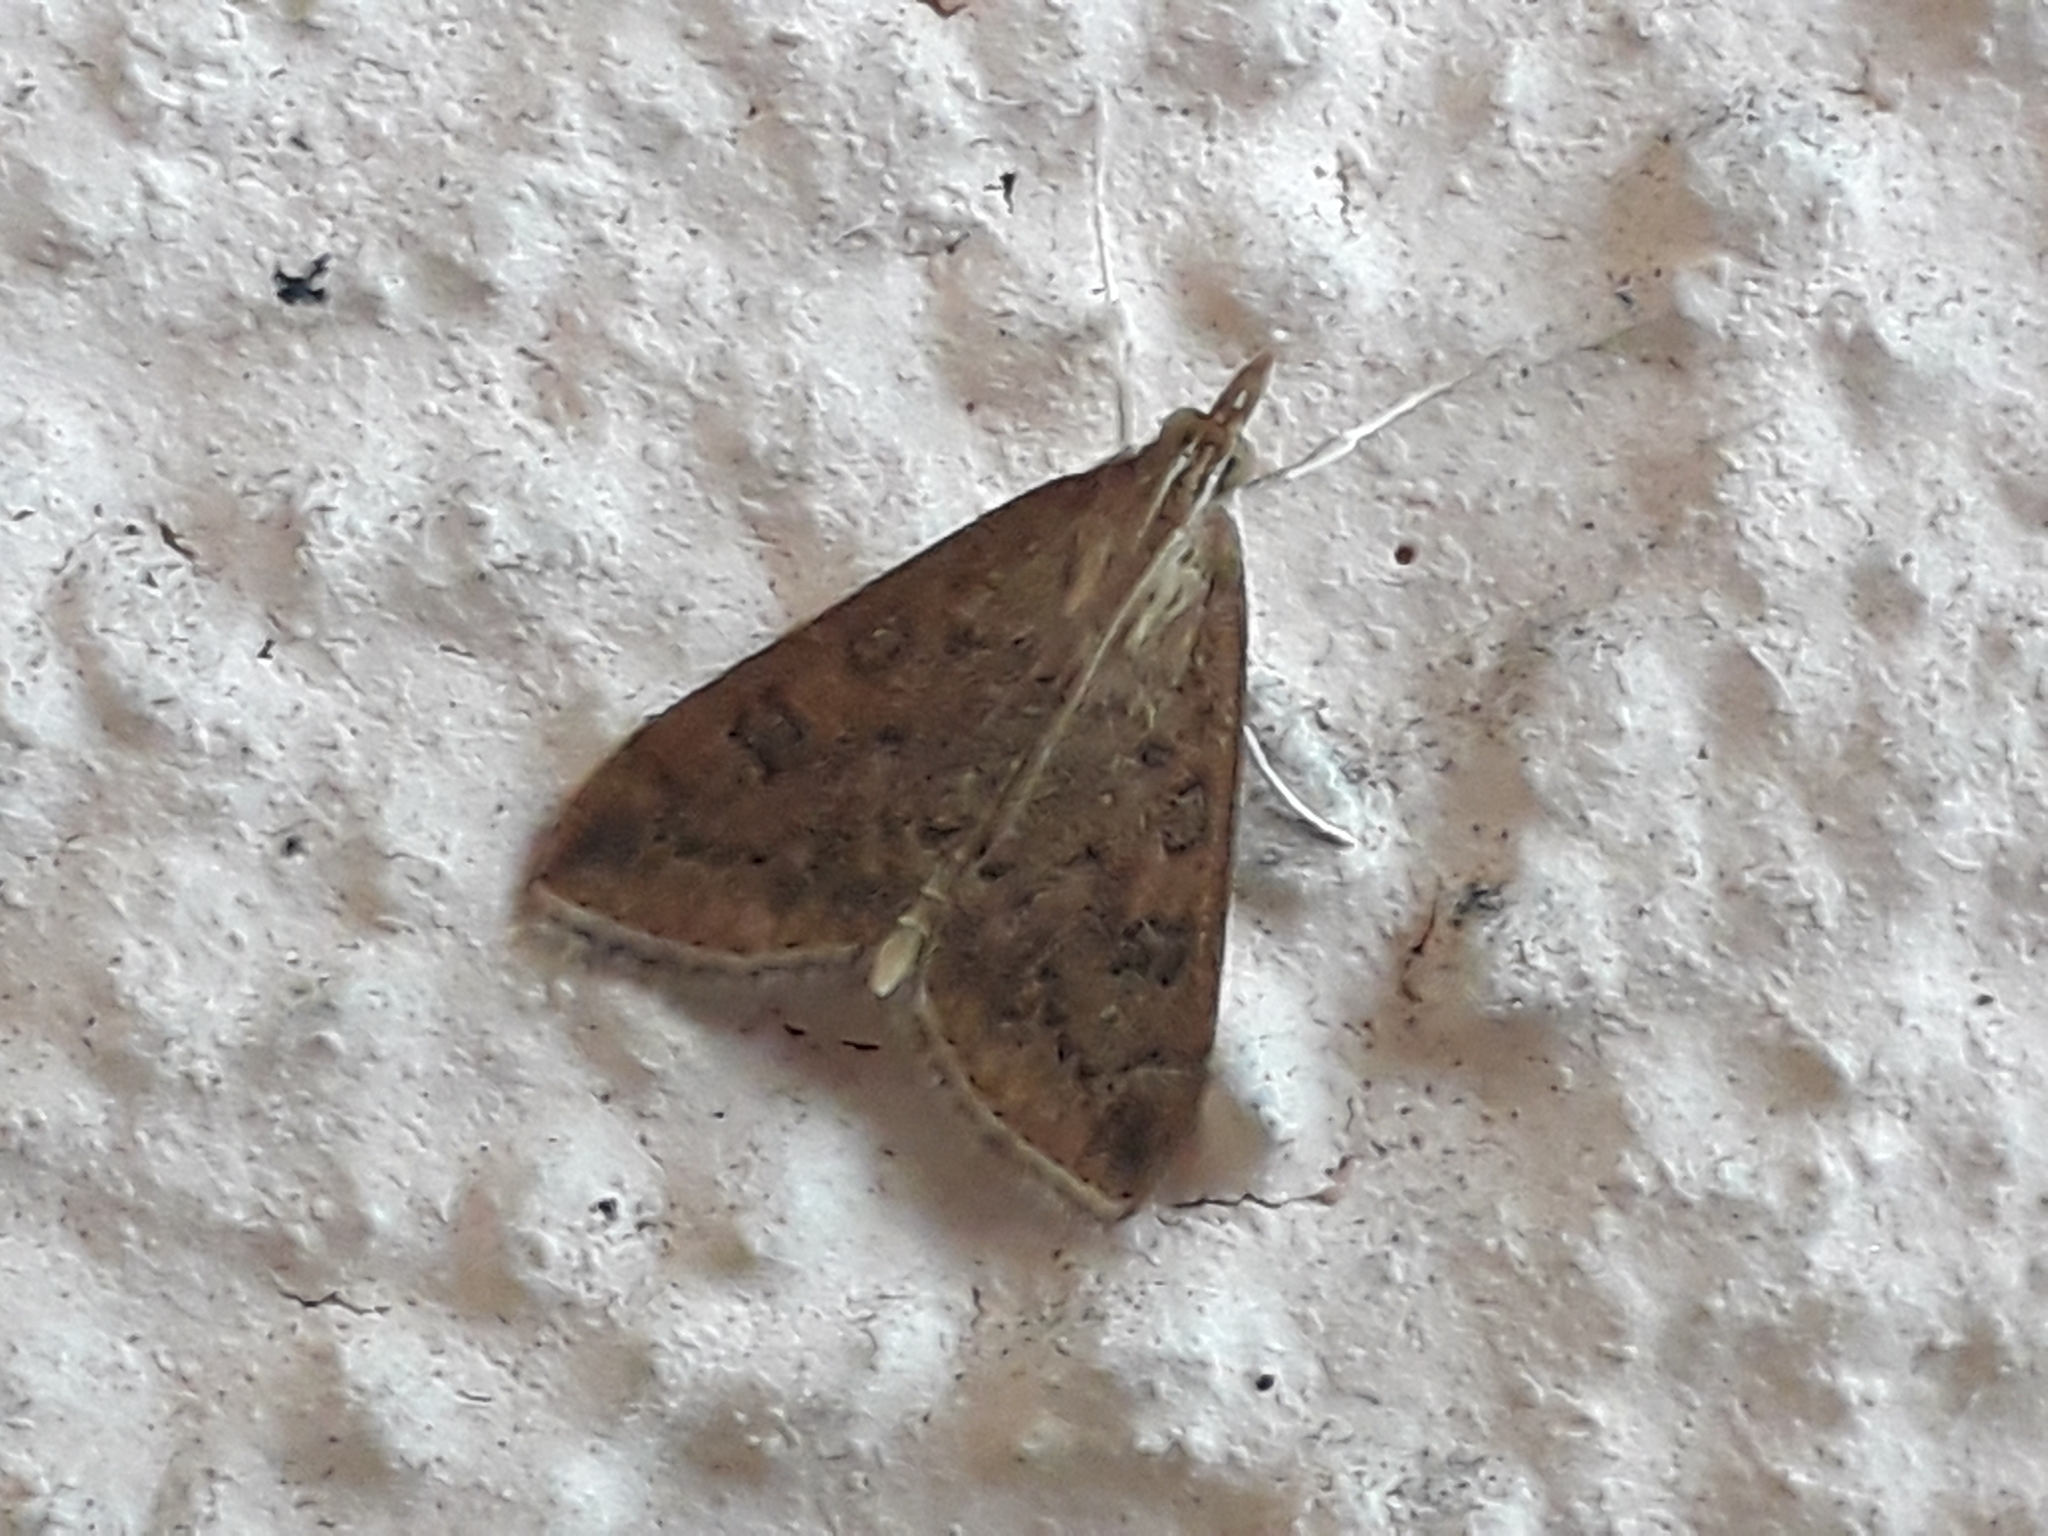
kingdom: Animalia
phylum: Arthropoda
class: Insecta
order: Lepidoptera
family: Crambidae
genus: Udea
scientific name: Udea ferrugalis
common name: Rusty dot
